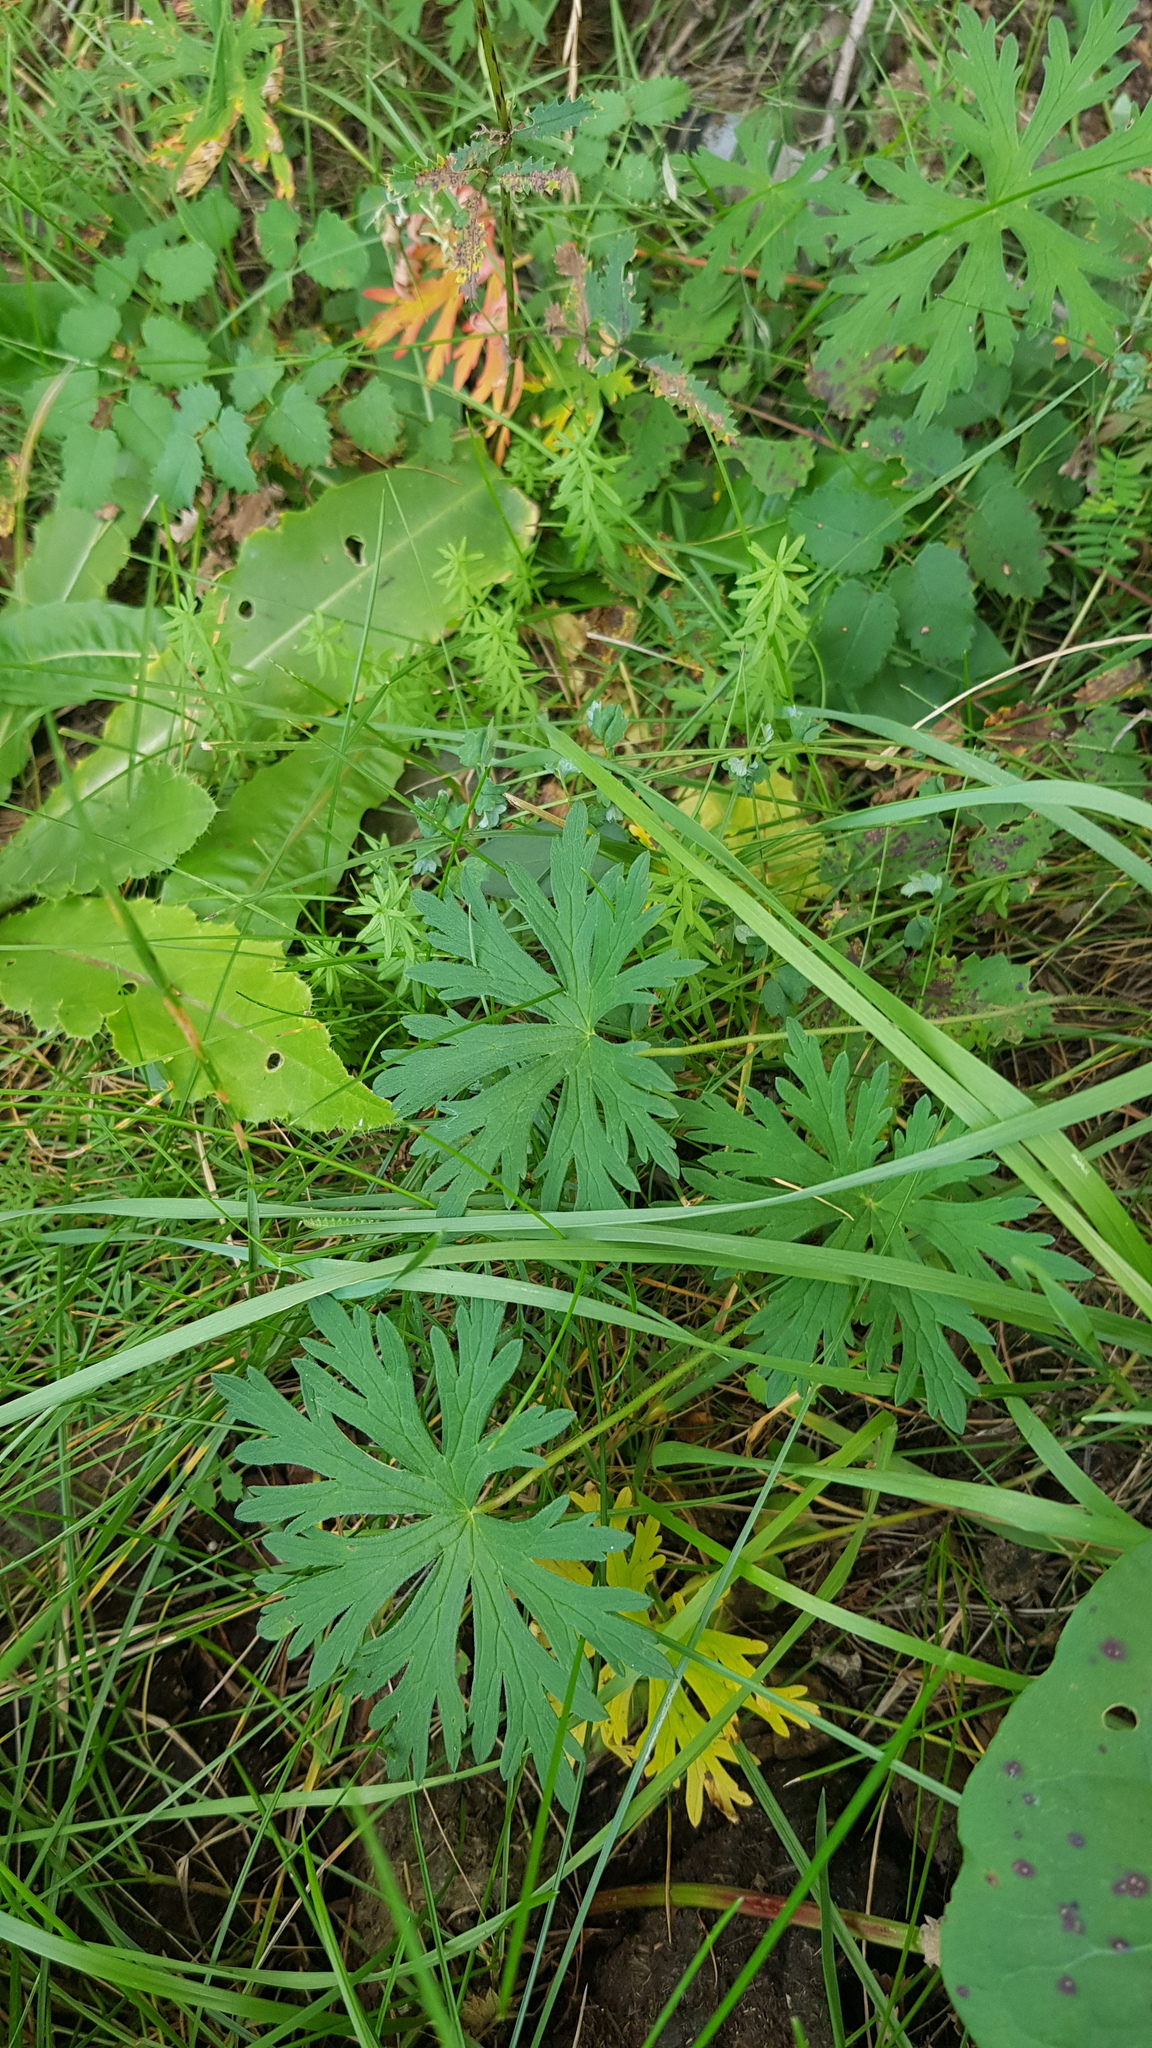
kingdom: Plantae
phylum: Tracheophyta
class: Magnoliopsida
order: Geraniales
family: Geraniaceae
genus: Geranium
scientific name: Geranium pratense
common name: Meadow crane's-bill
